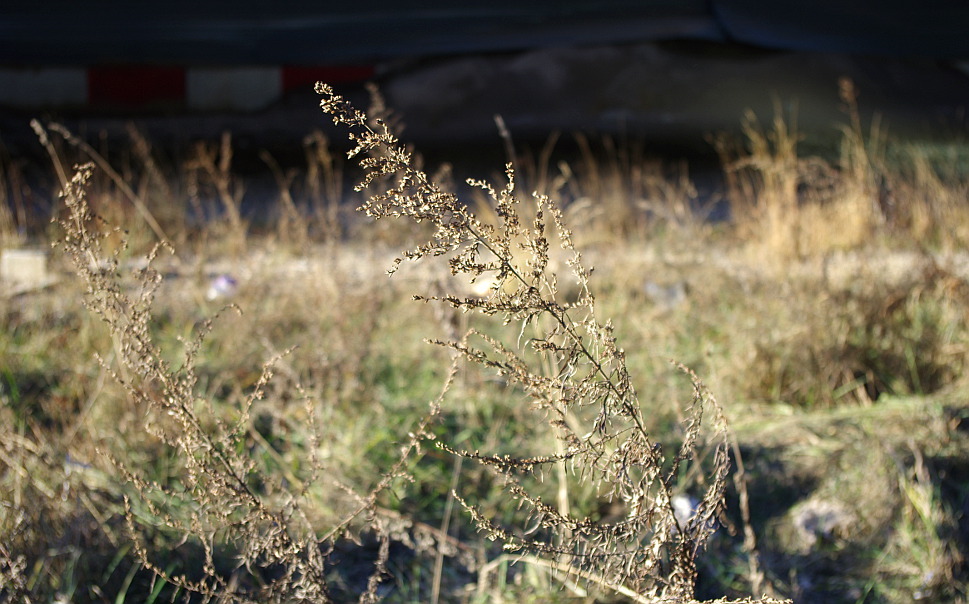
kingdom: Plantae
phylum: Tracheophyta
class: Magnoliopsida
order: Asterales
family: Asteraceae
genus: Artemisia
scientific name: Artemisia vulgaris
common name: Mugwort
